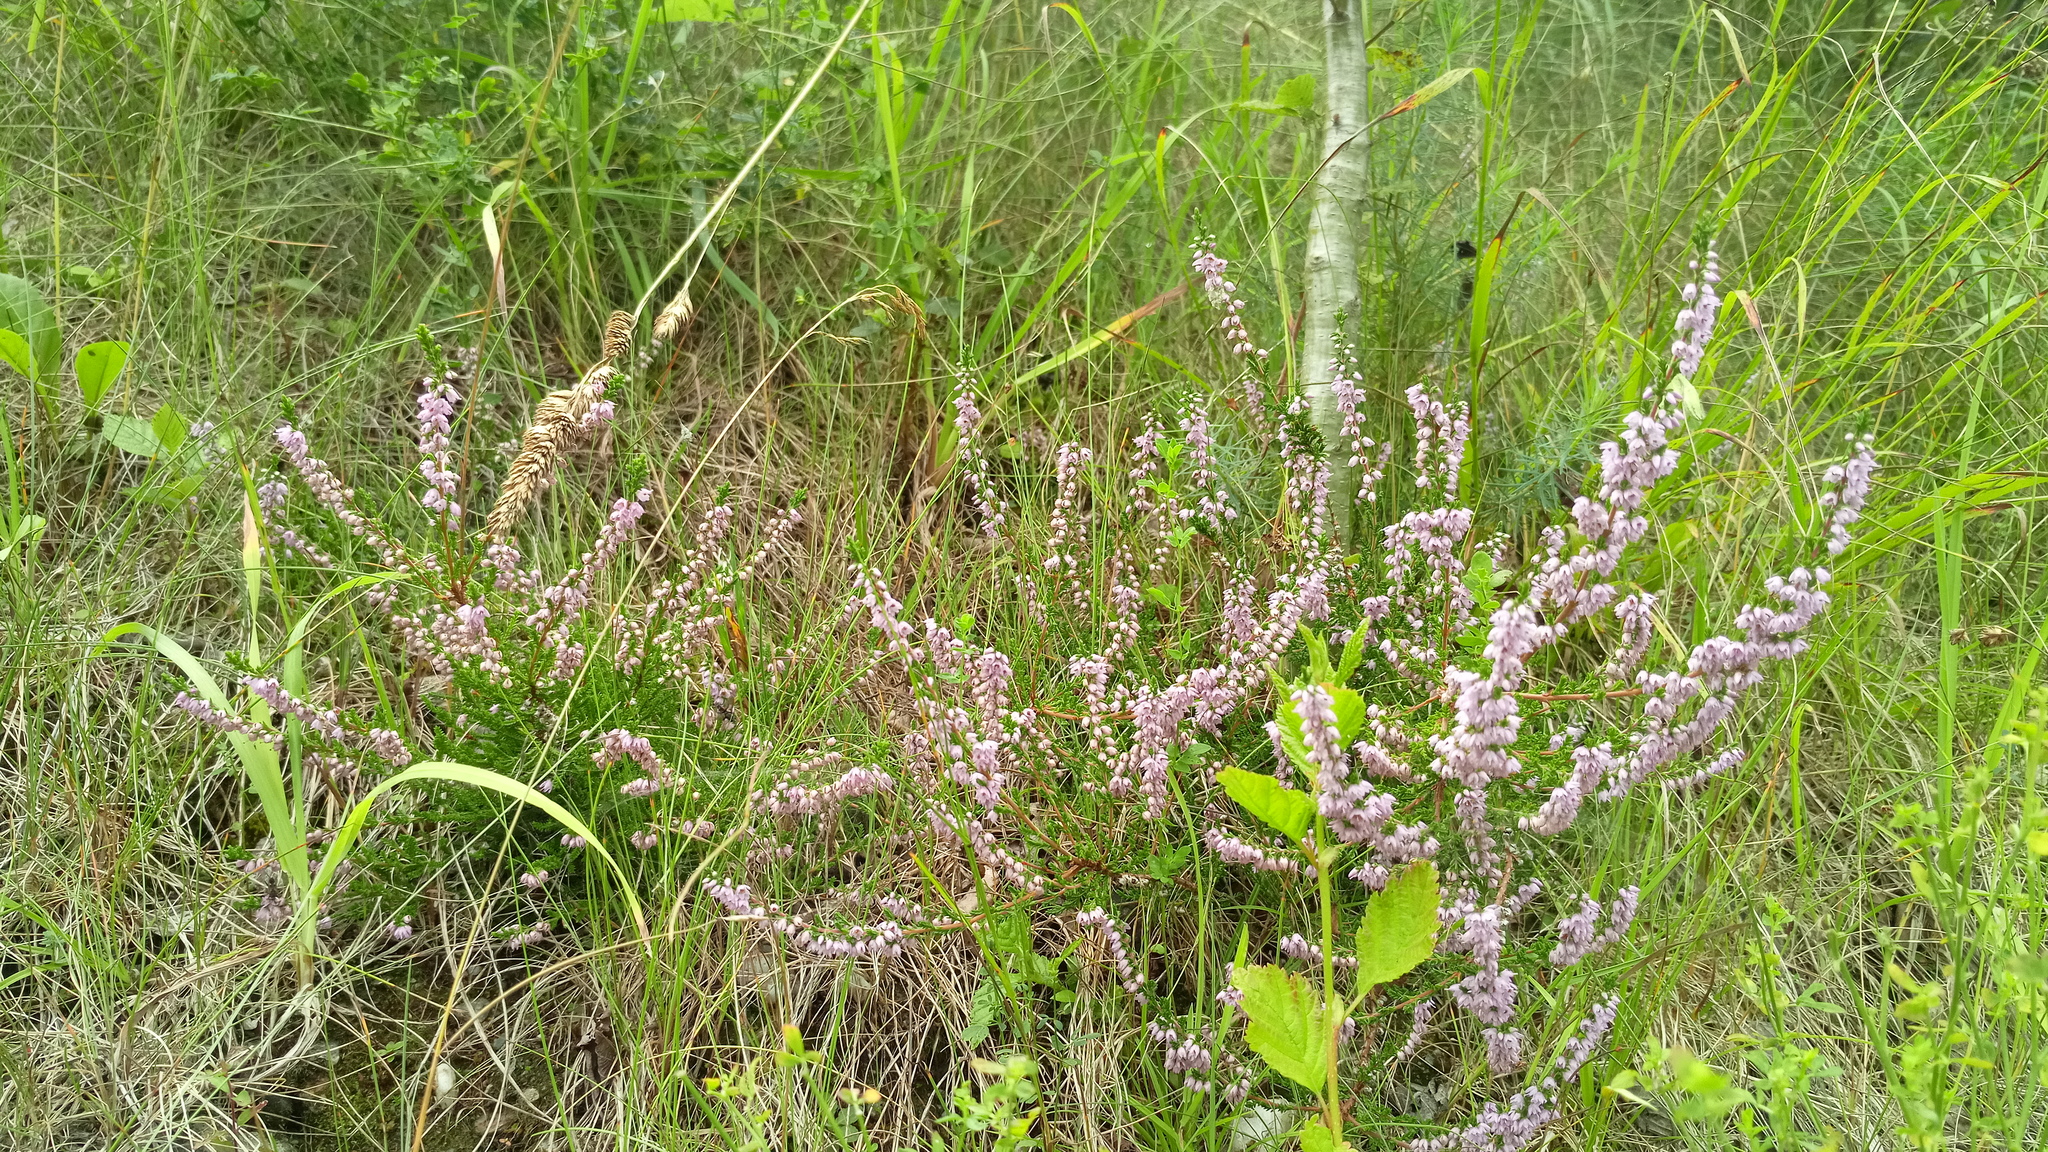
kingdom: Plantae
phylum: Tracheophyta
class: Magnoliopsida
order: Ericales
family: Ericaceae
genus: Calluna
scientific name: Calluna vulgaris
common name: Heather
